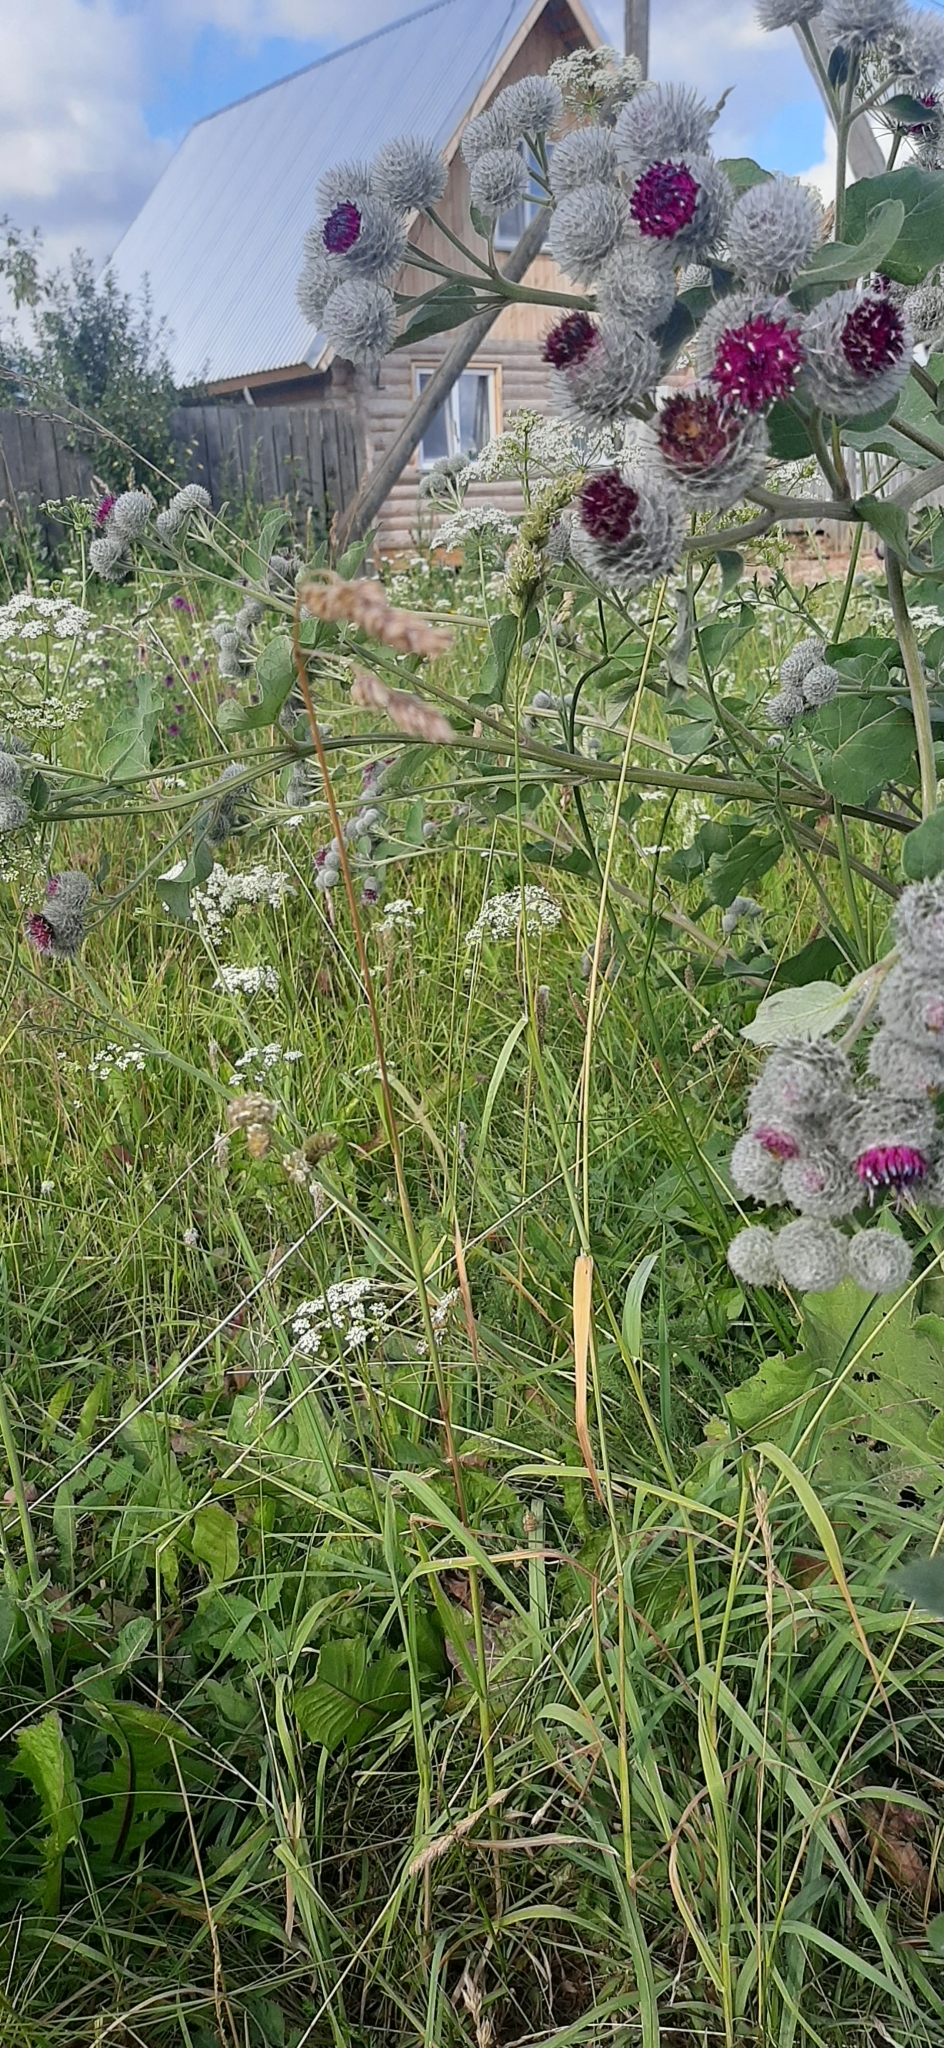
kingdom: Plantae
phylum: Tracheophyta
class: Liliopsida
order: Poales
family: Poaceae
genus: Dactylis
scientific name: Dactylis glomerata
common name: Orchardgrass
